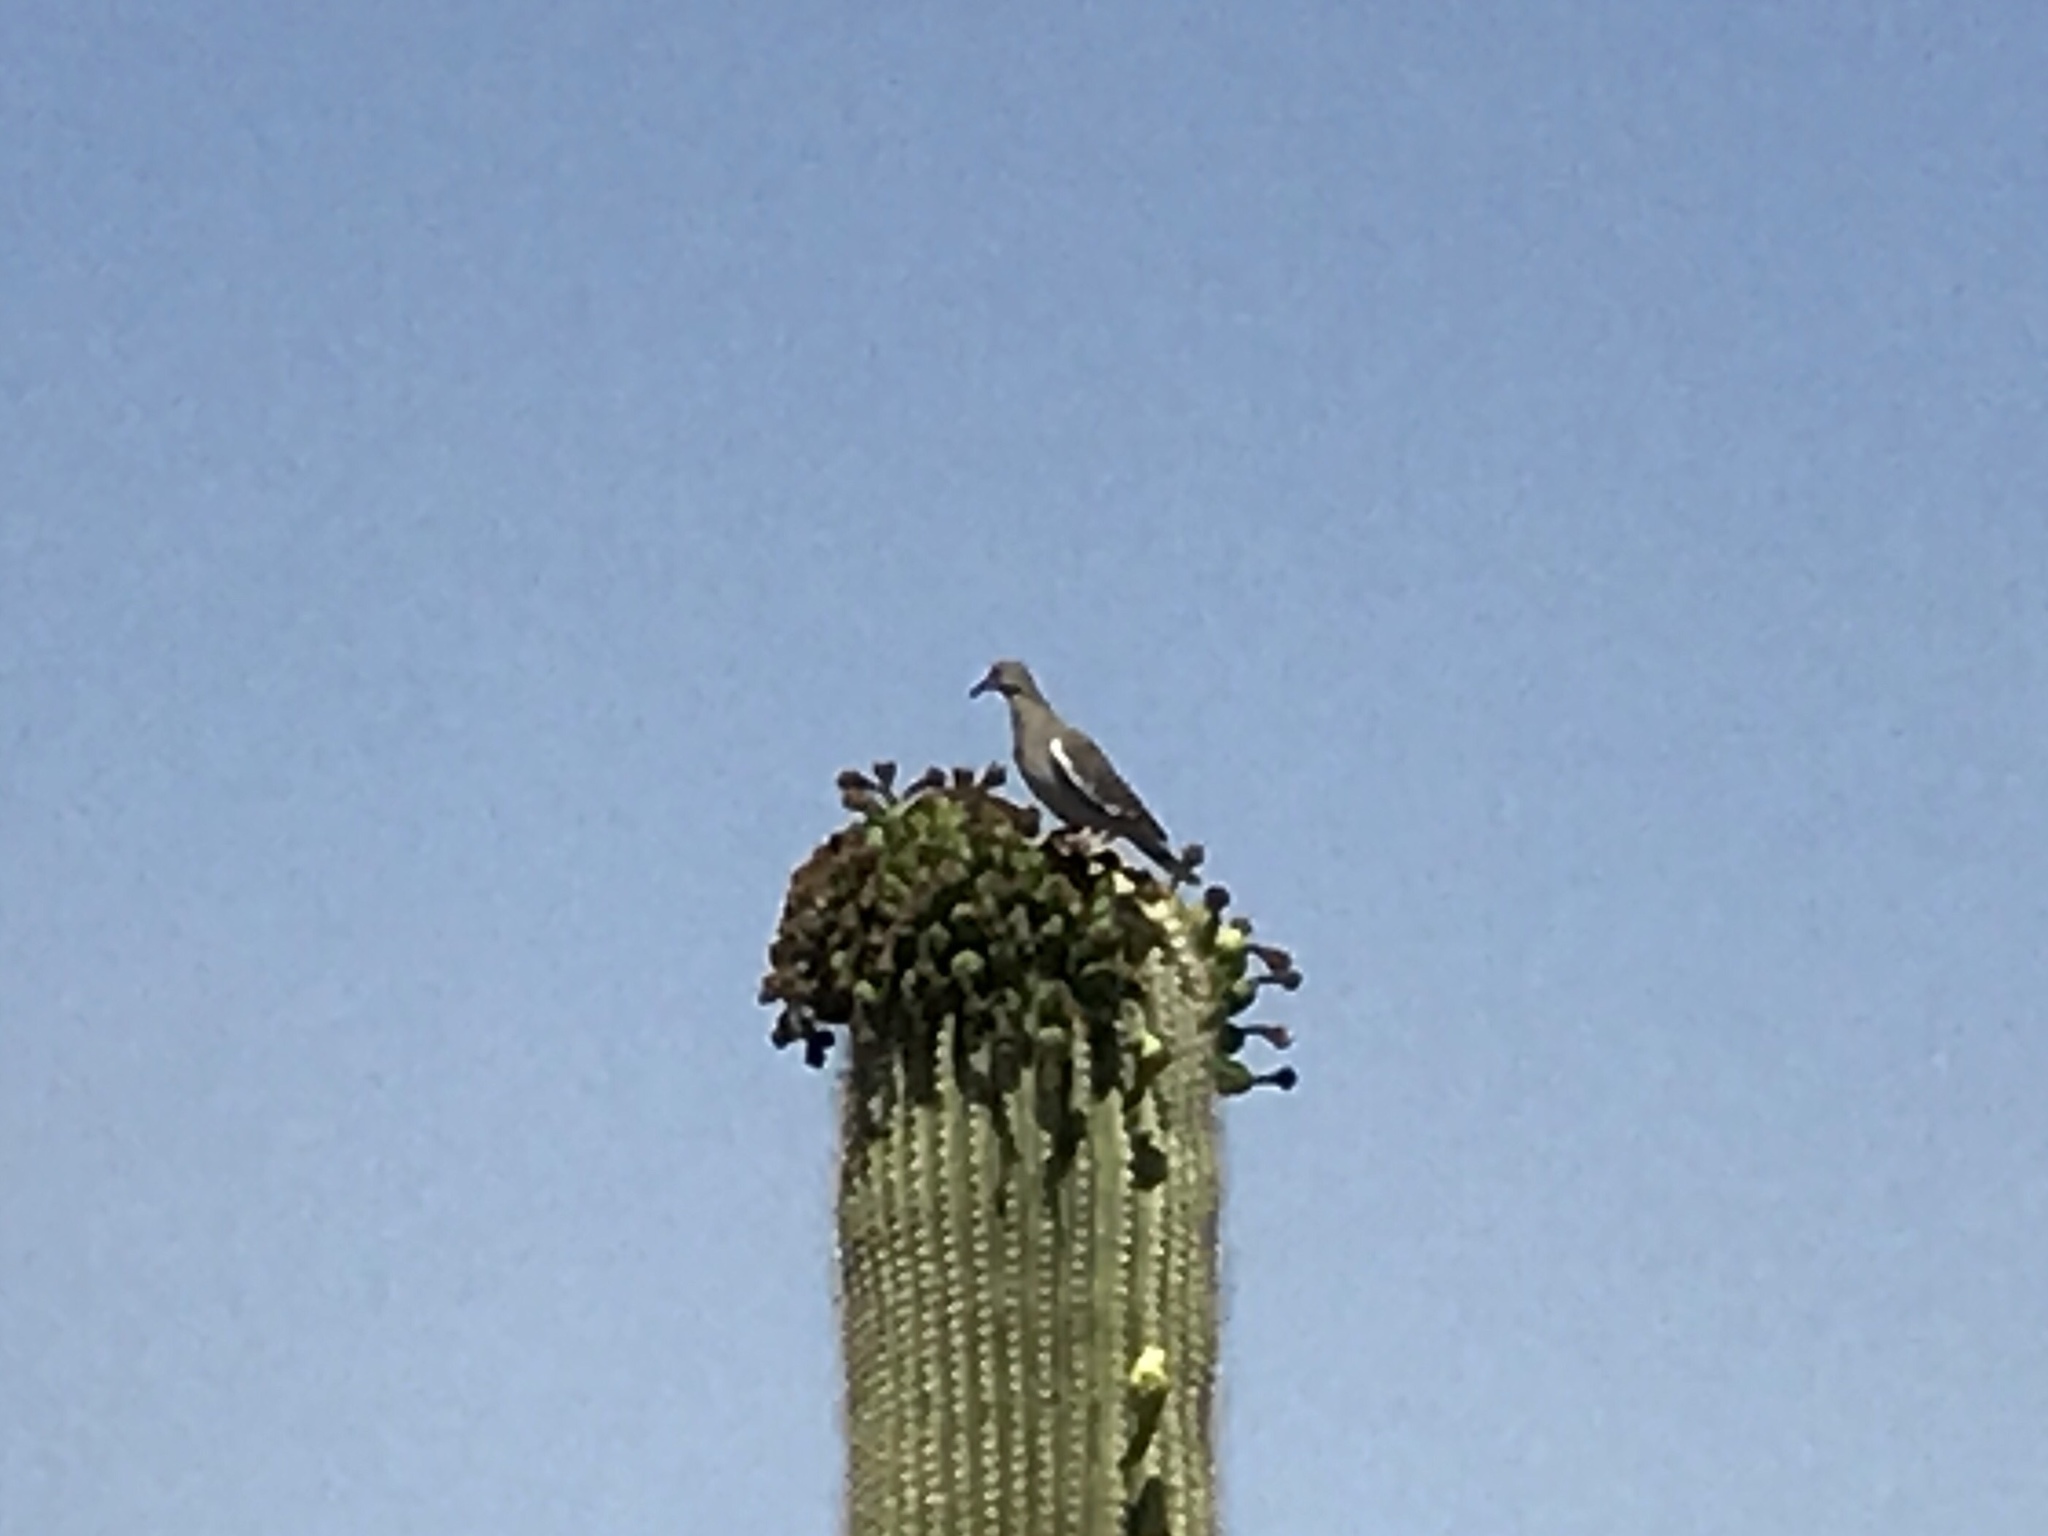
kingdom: Animalia
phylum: Chordata
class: Aves
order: Columbiformes
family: Columbidae
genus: Zenaida
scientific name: Zenaida asiatica
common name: White-winged dove
